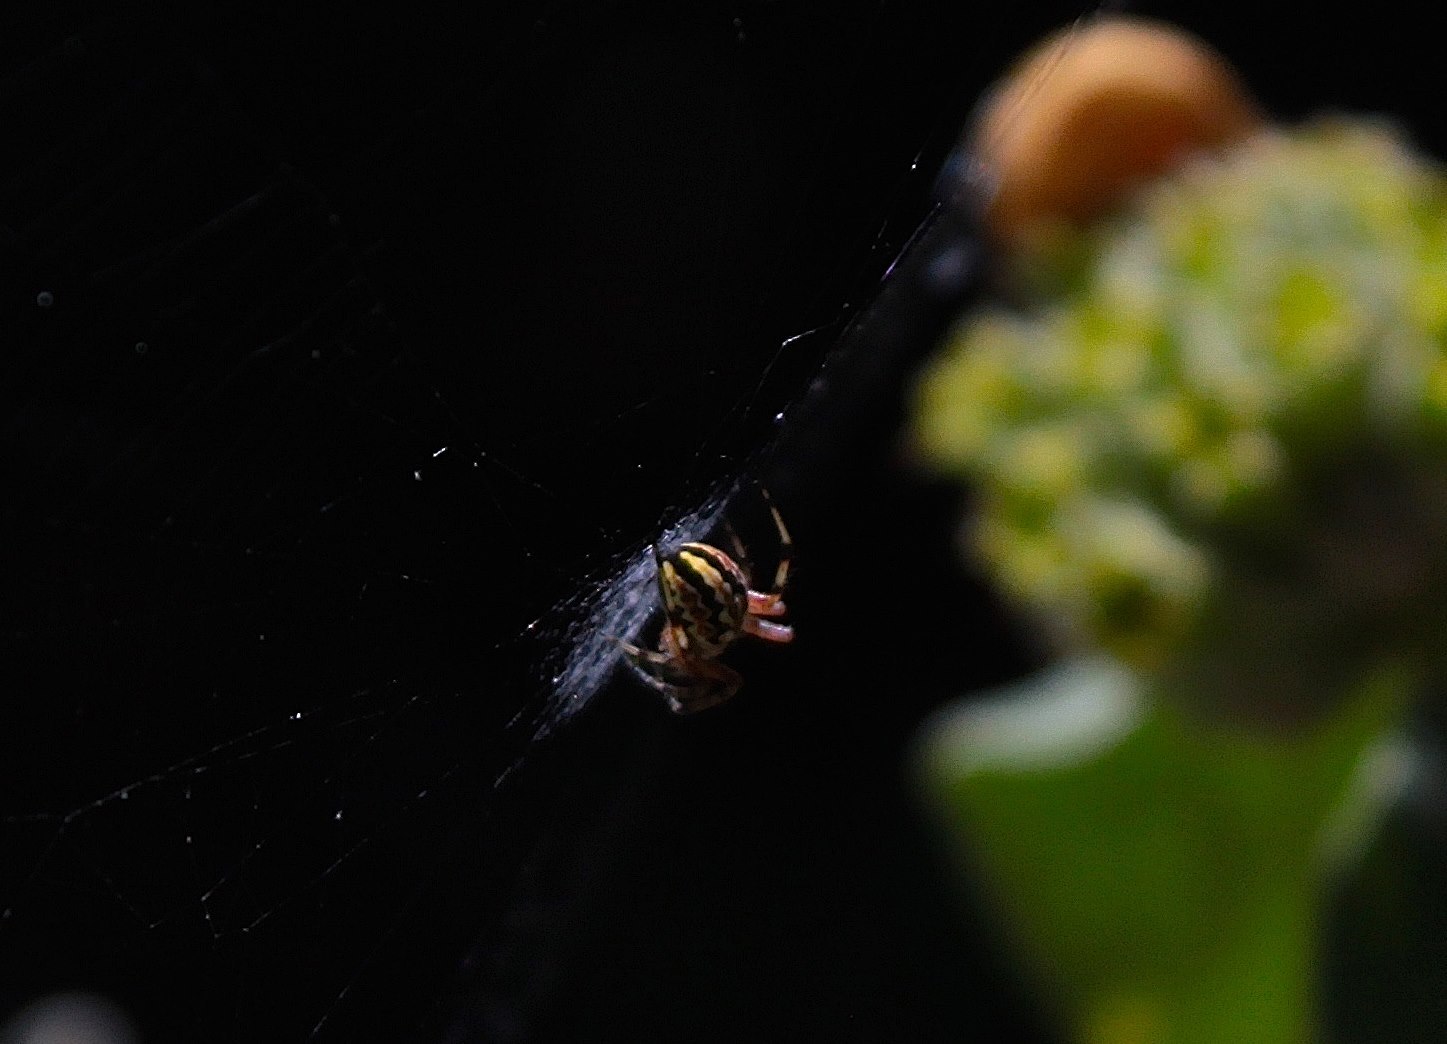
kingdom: Animalia
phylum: Arthropoda
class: Arachnida
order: Araneae
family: Araneidae
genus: Neoscona
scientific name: Neoscona adianta
